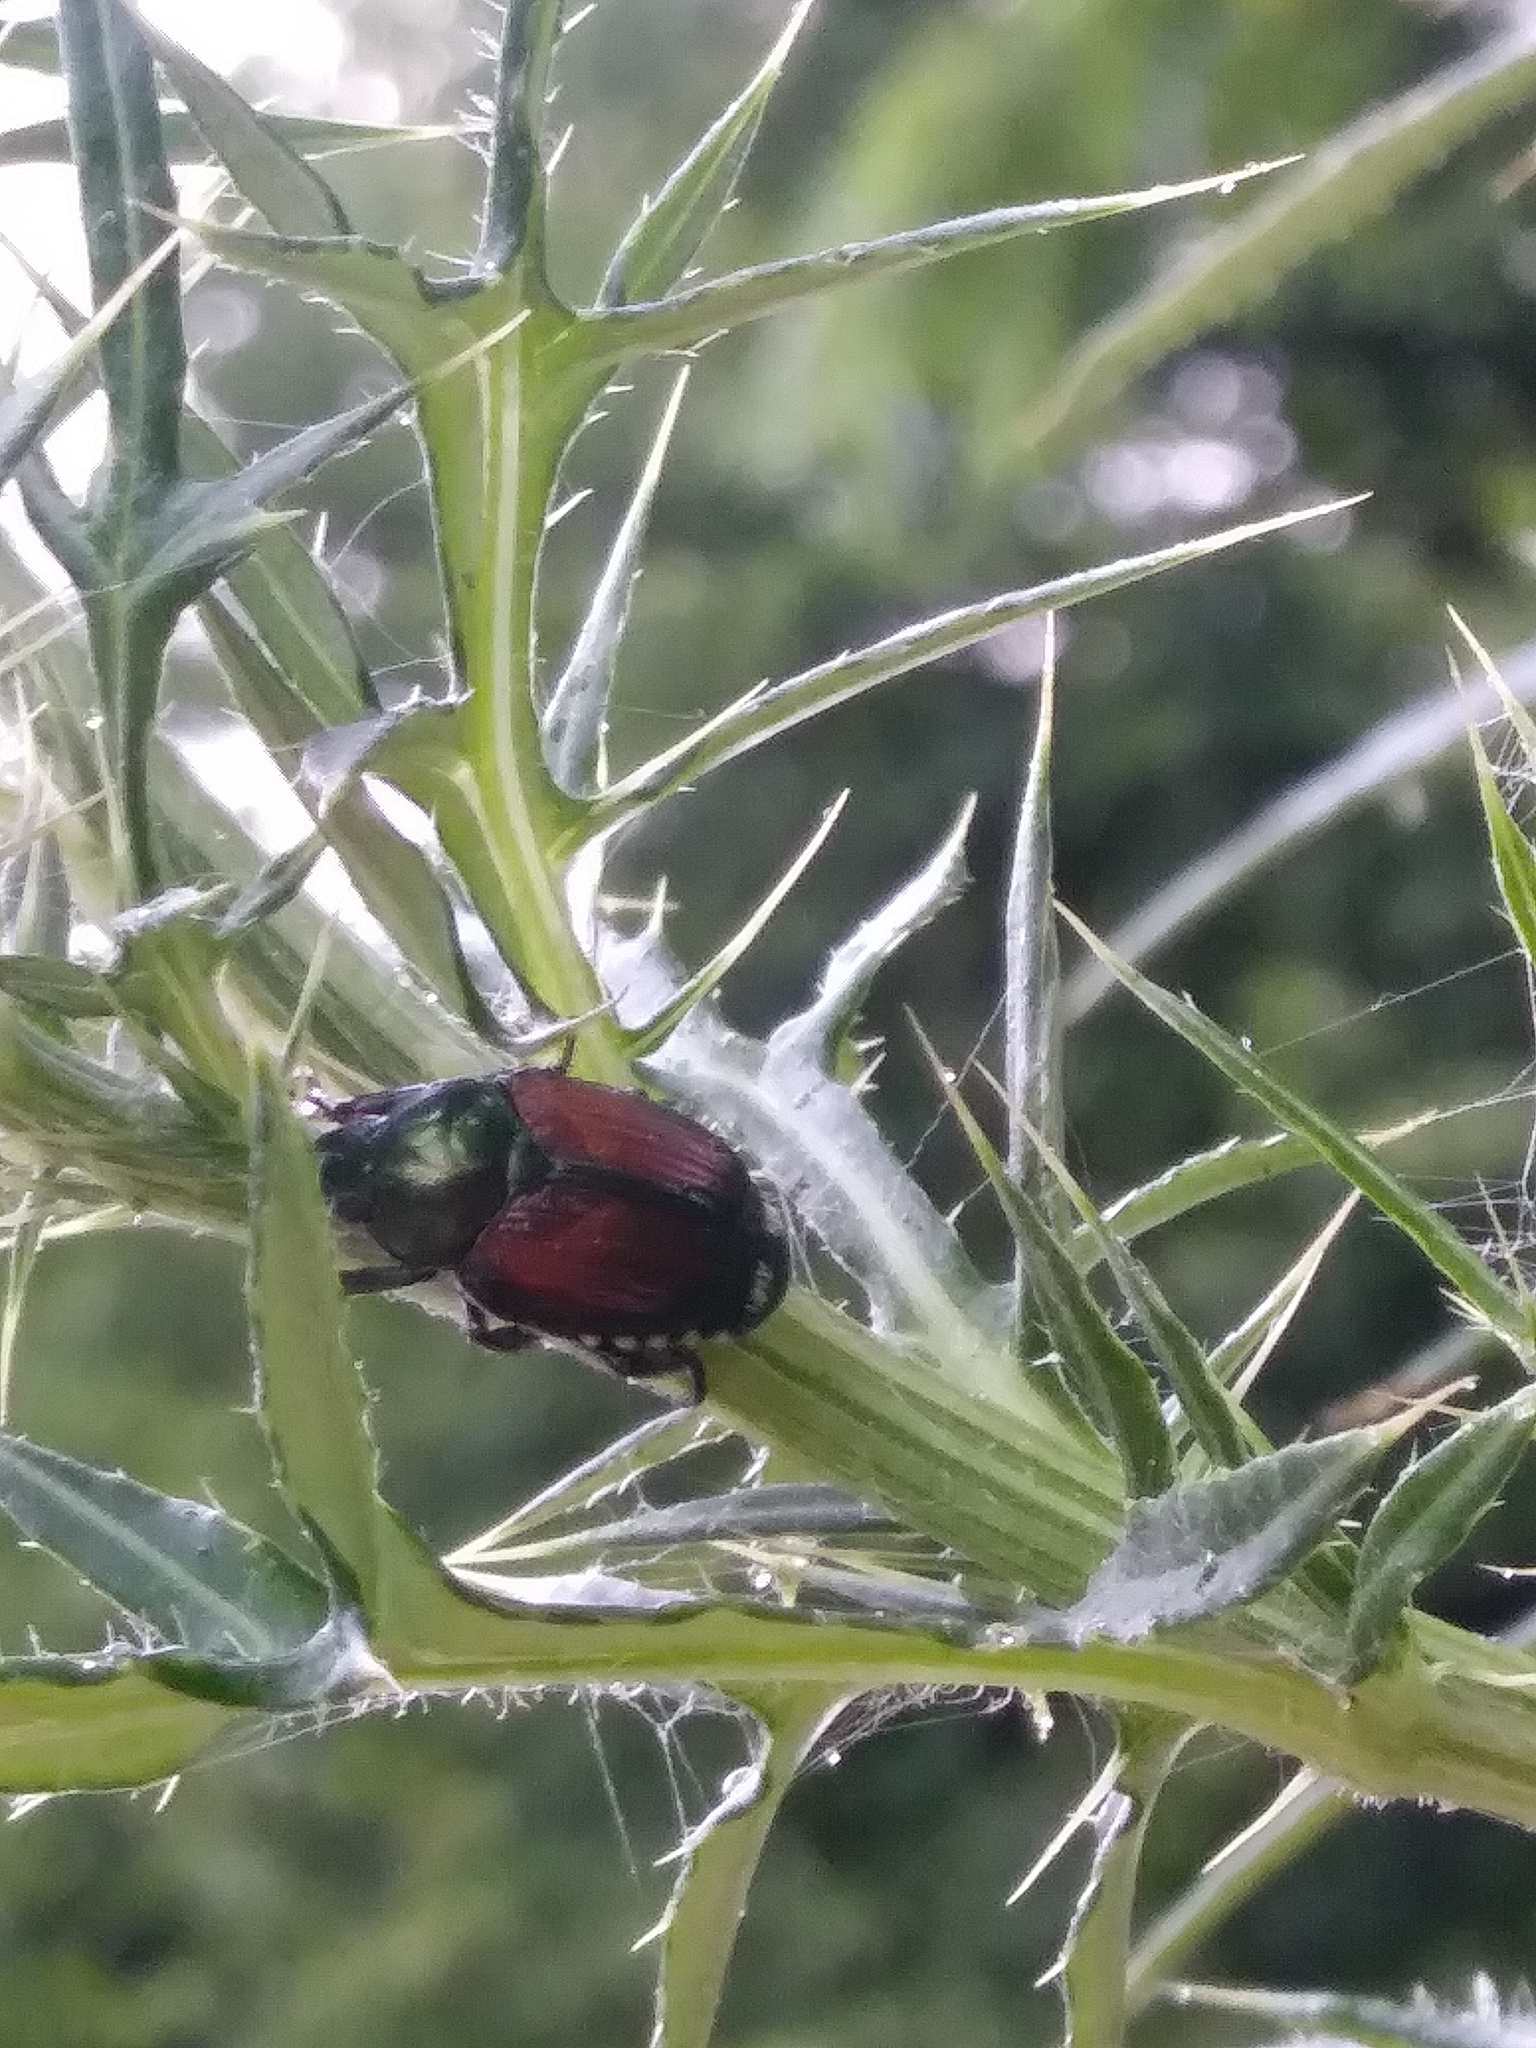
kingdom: Animalia
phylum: Arthropoda
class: Insecta
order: Coleoptera
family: Scarabaeidae
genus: Popillia
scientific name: Popillia japonica
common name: Japanese beetle
